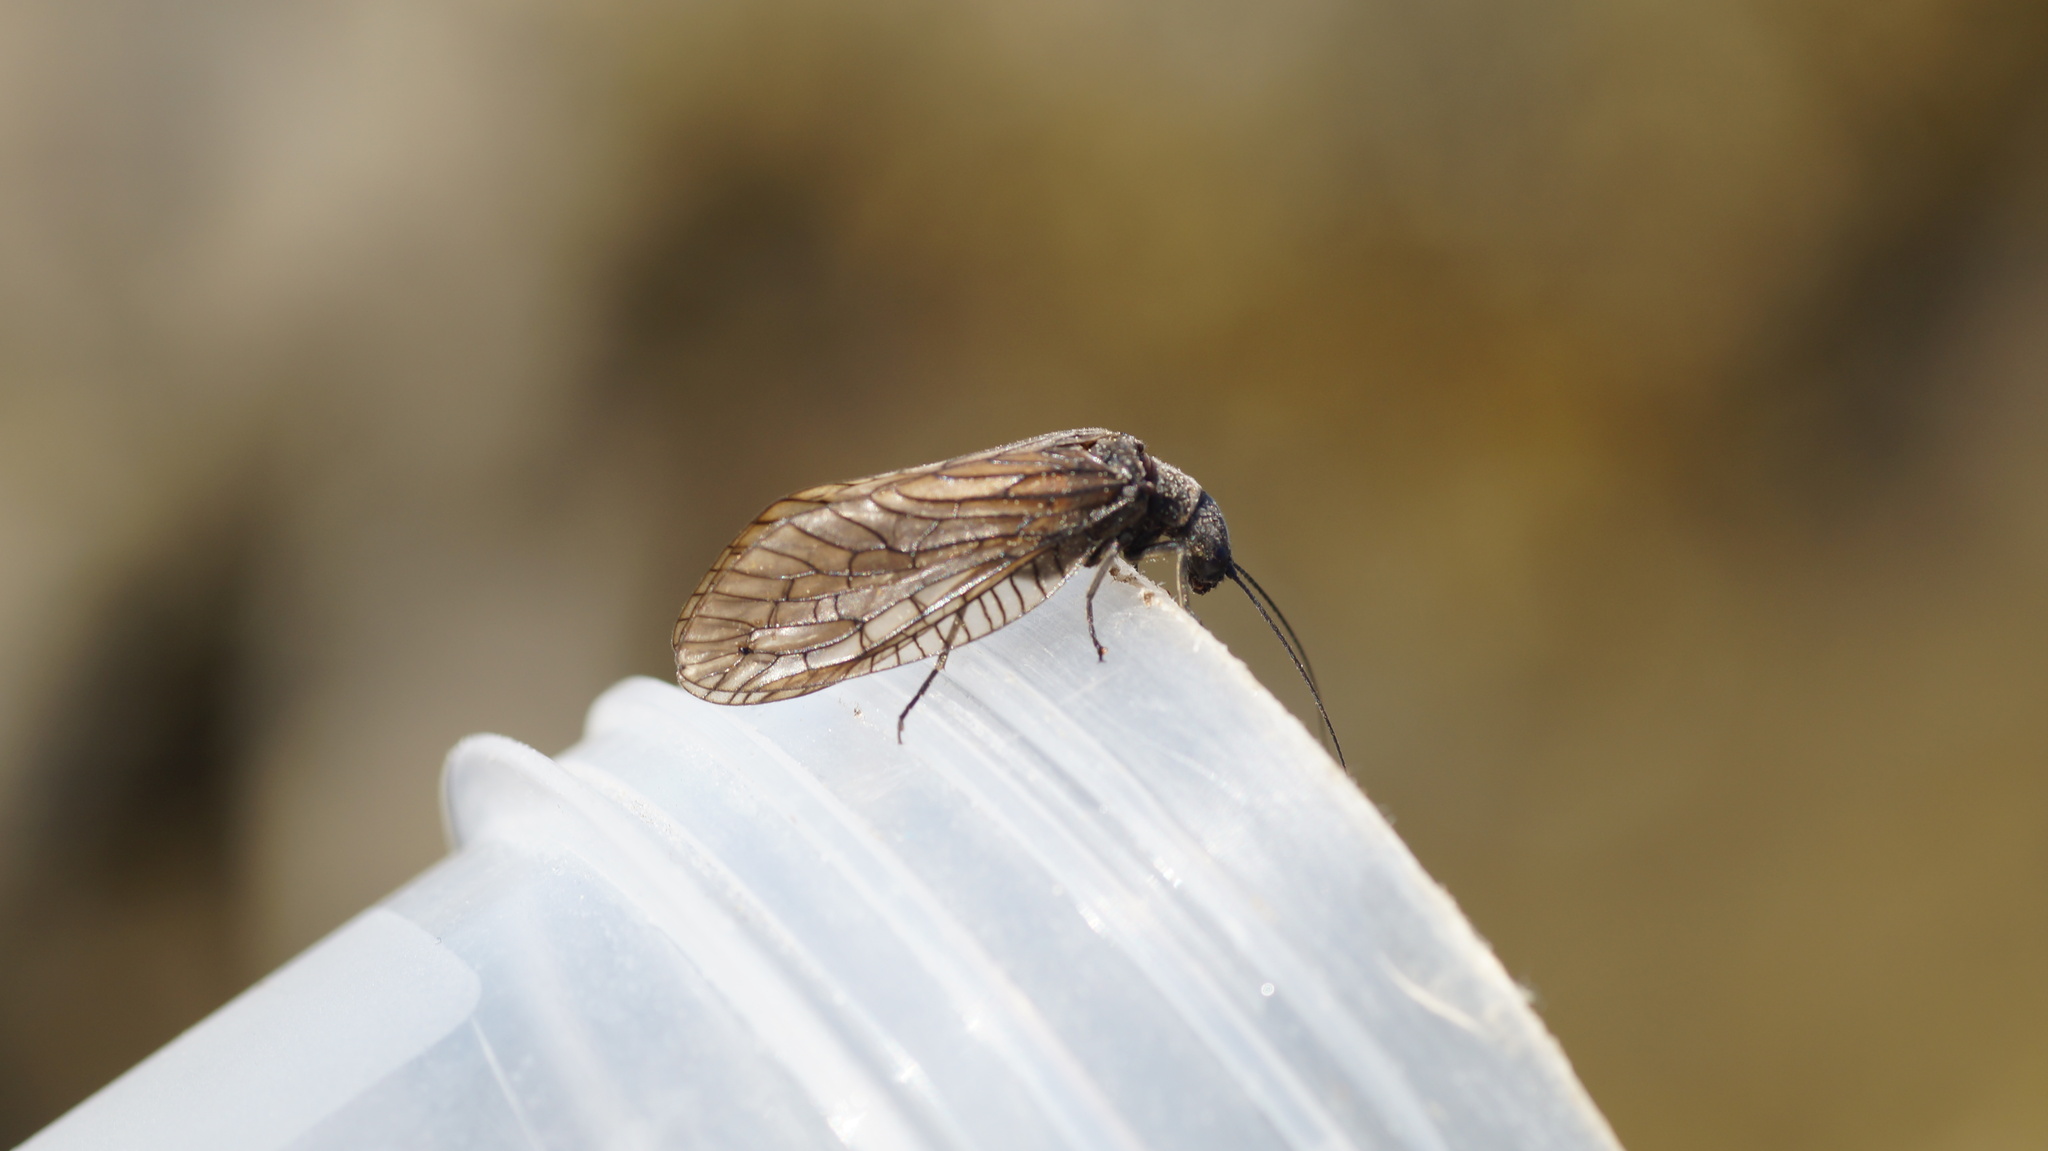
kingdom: Animalia
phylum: Arthropoda
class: Insecta
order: Megaloptera
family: Sialidae
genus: Sialis
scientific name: Sialis
